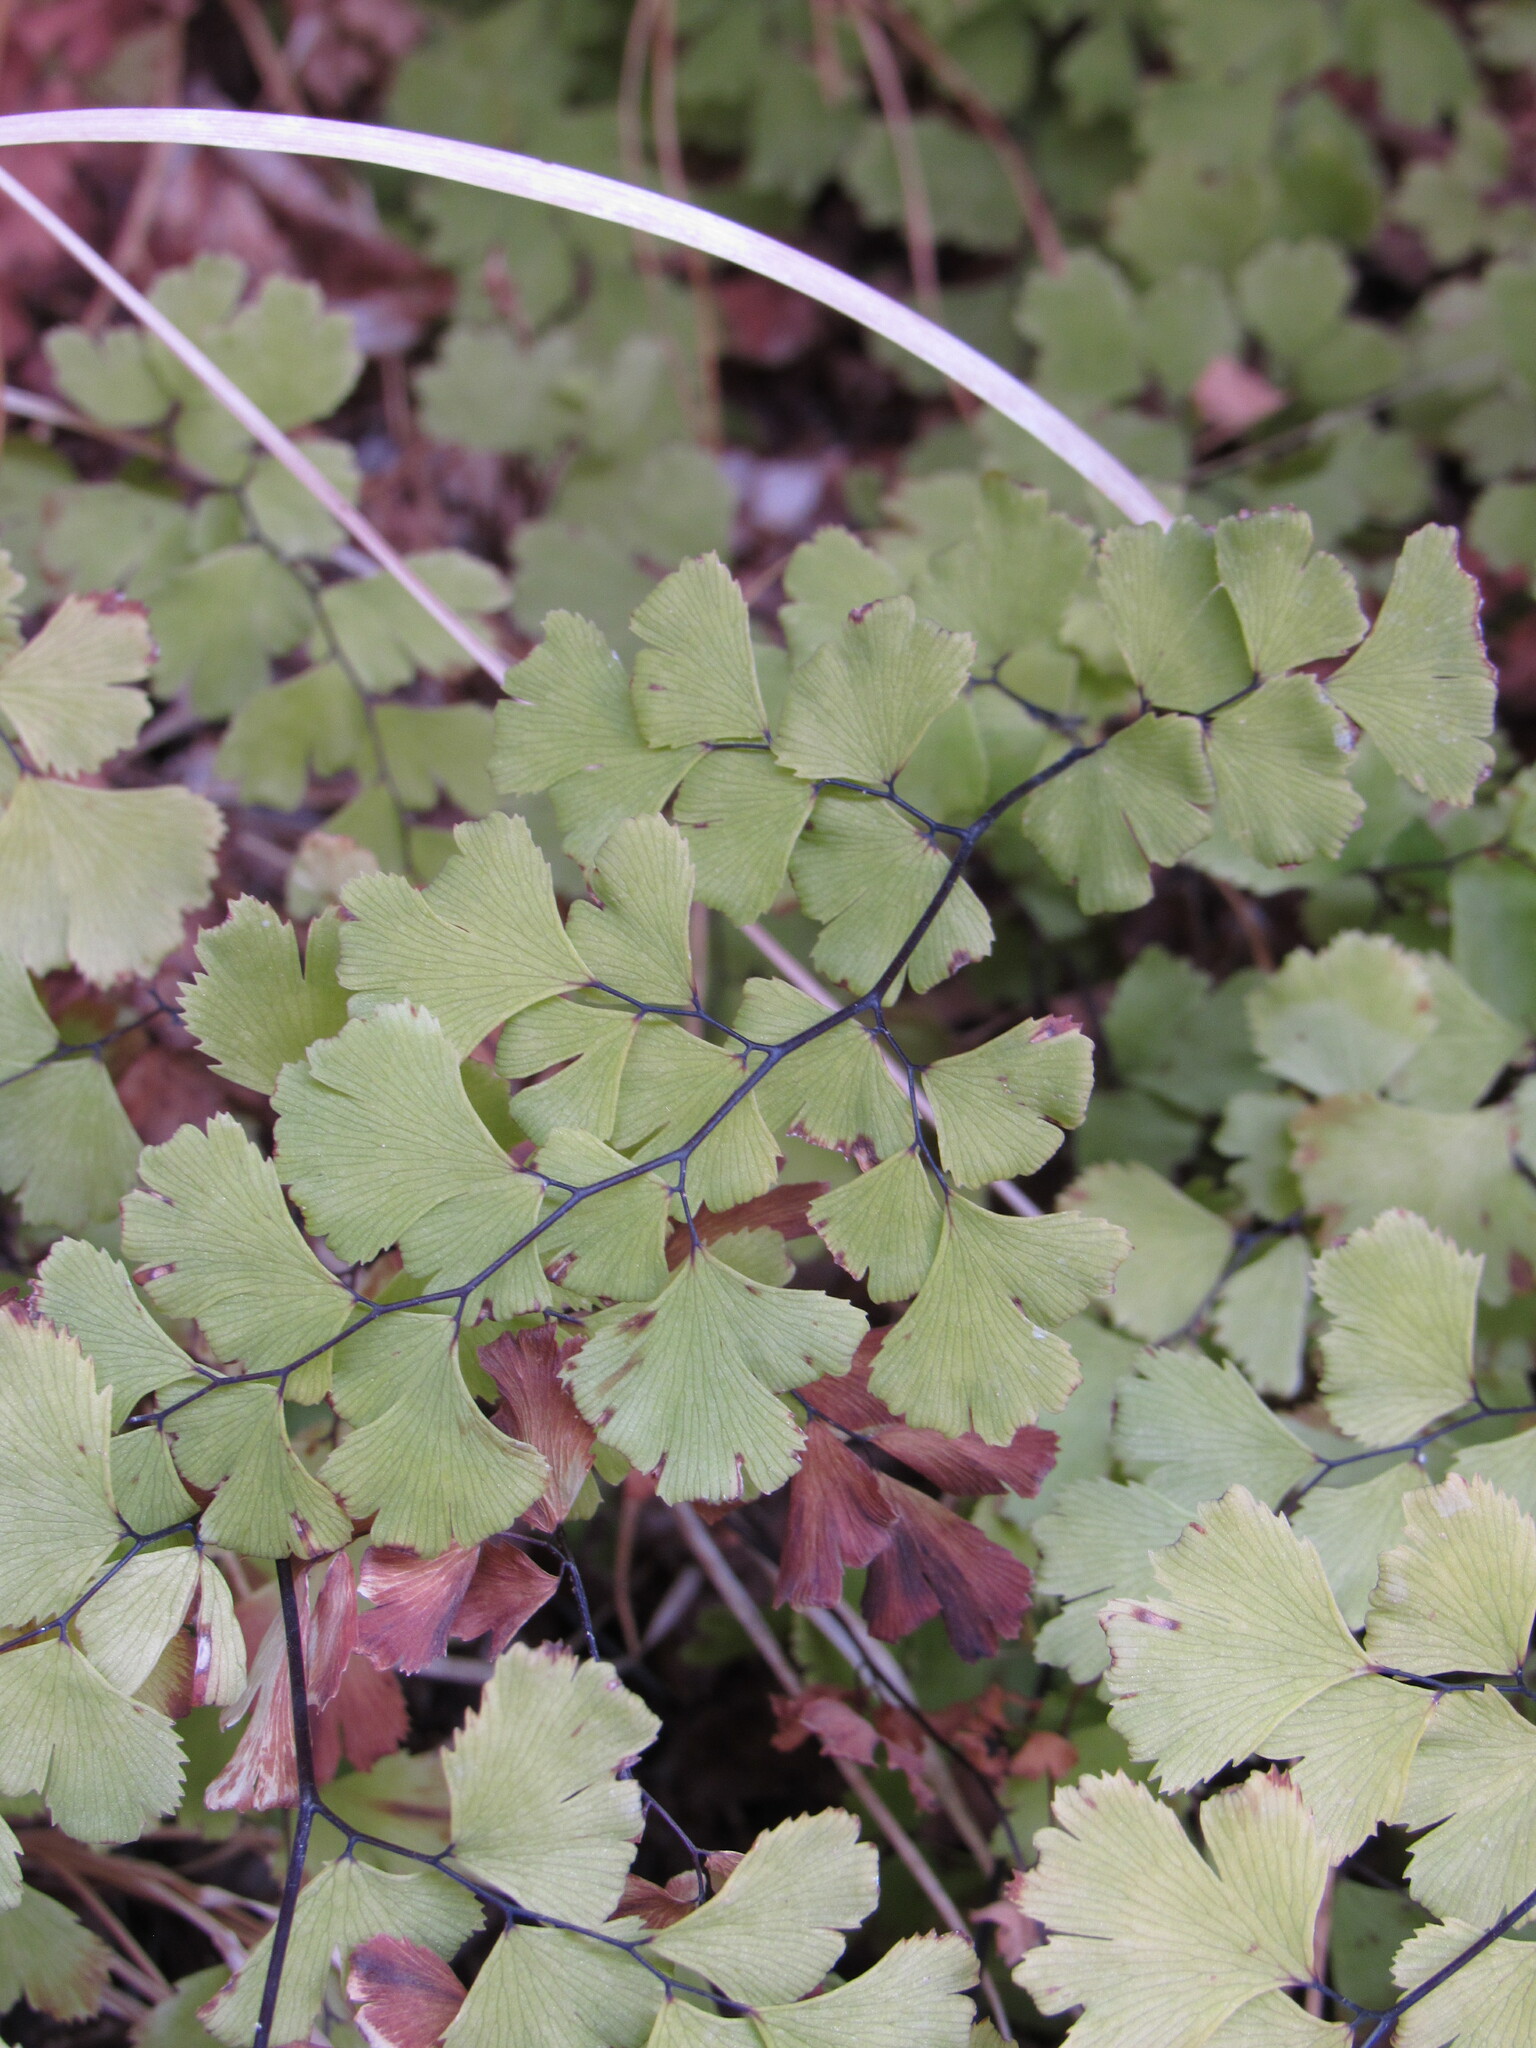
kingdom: Plantae
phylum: Tracheophyta
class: Polypodiopsida
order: Polypodiales
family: Pteridaceae
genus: Adiantum
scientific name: Adiantum capillus-veneris
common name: Maidenhair fern
